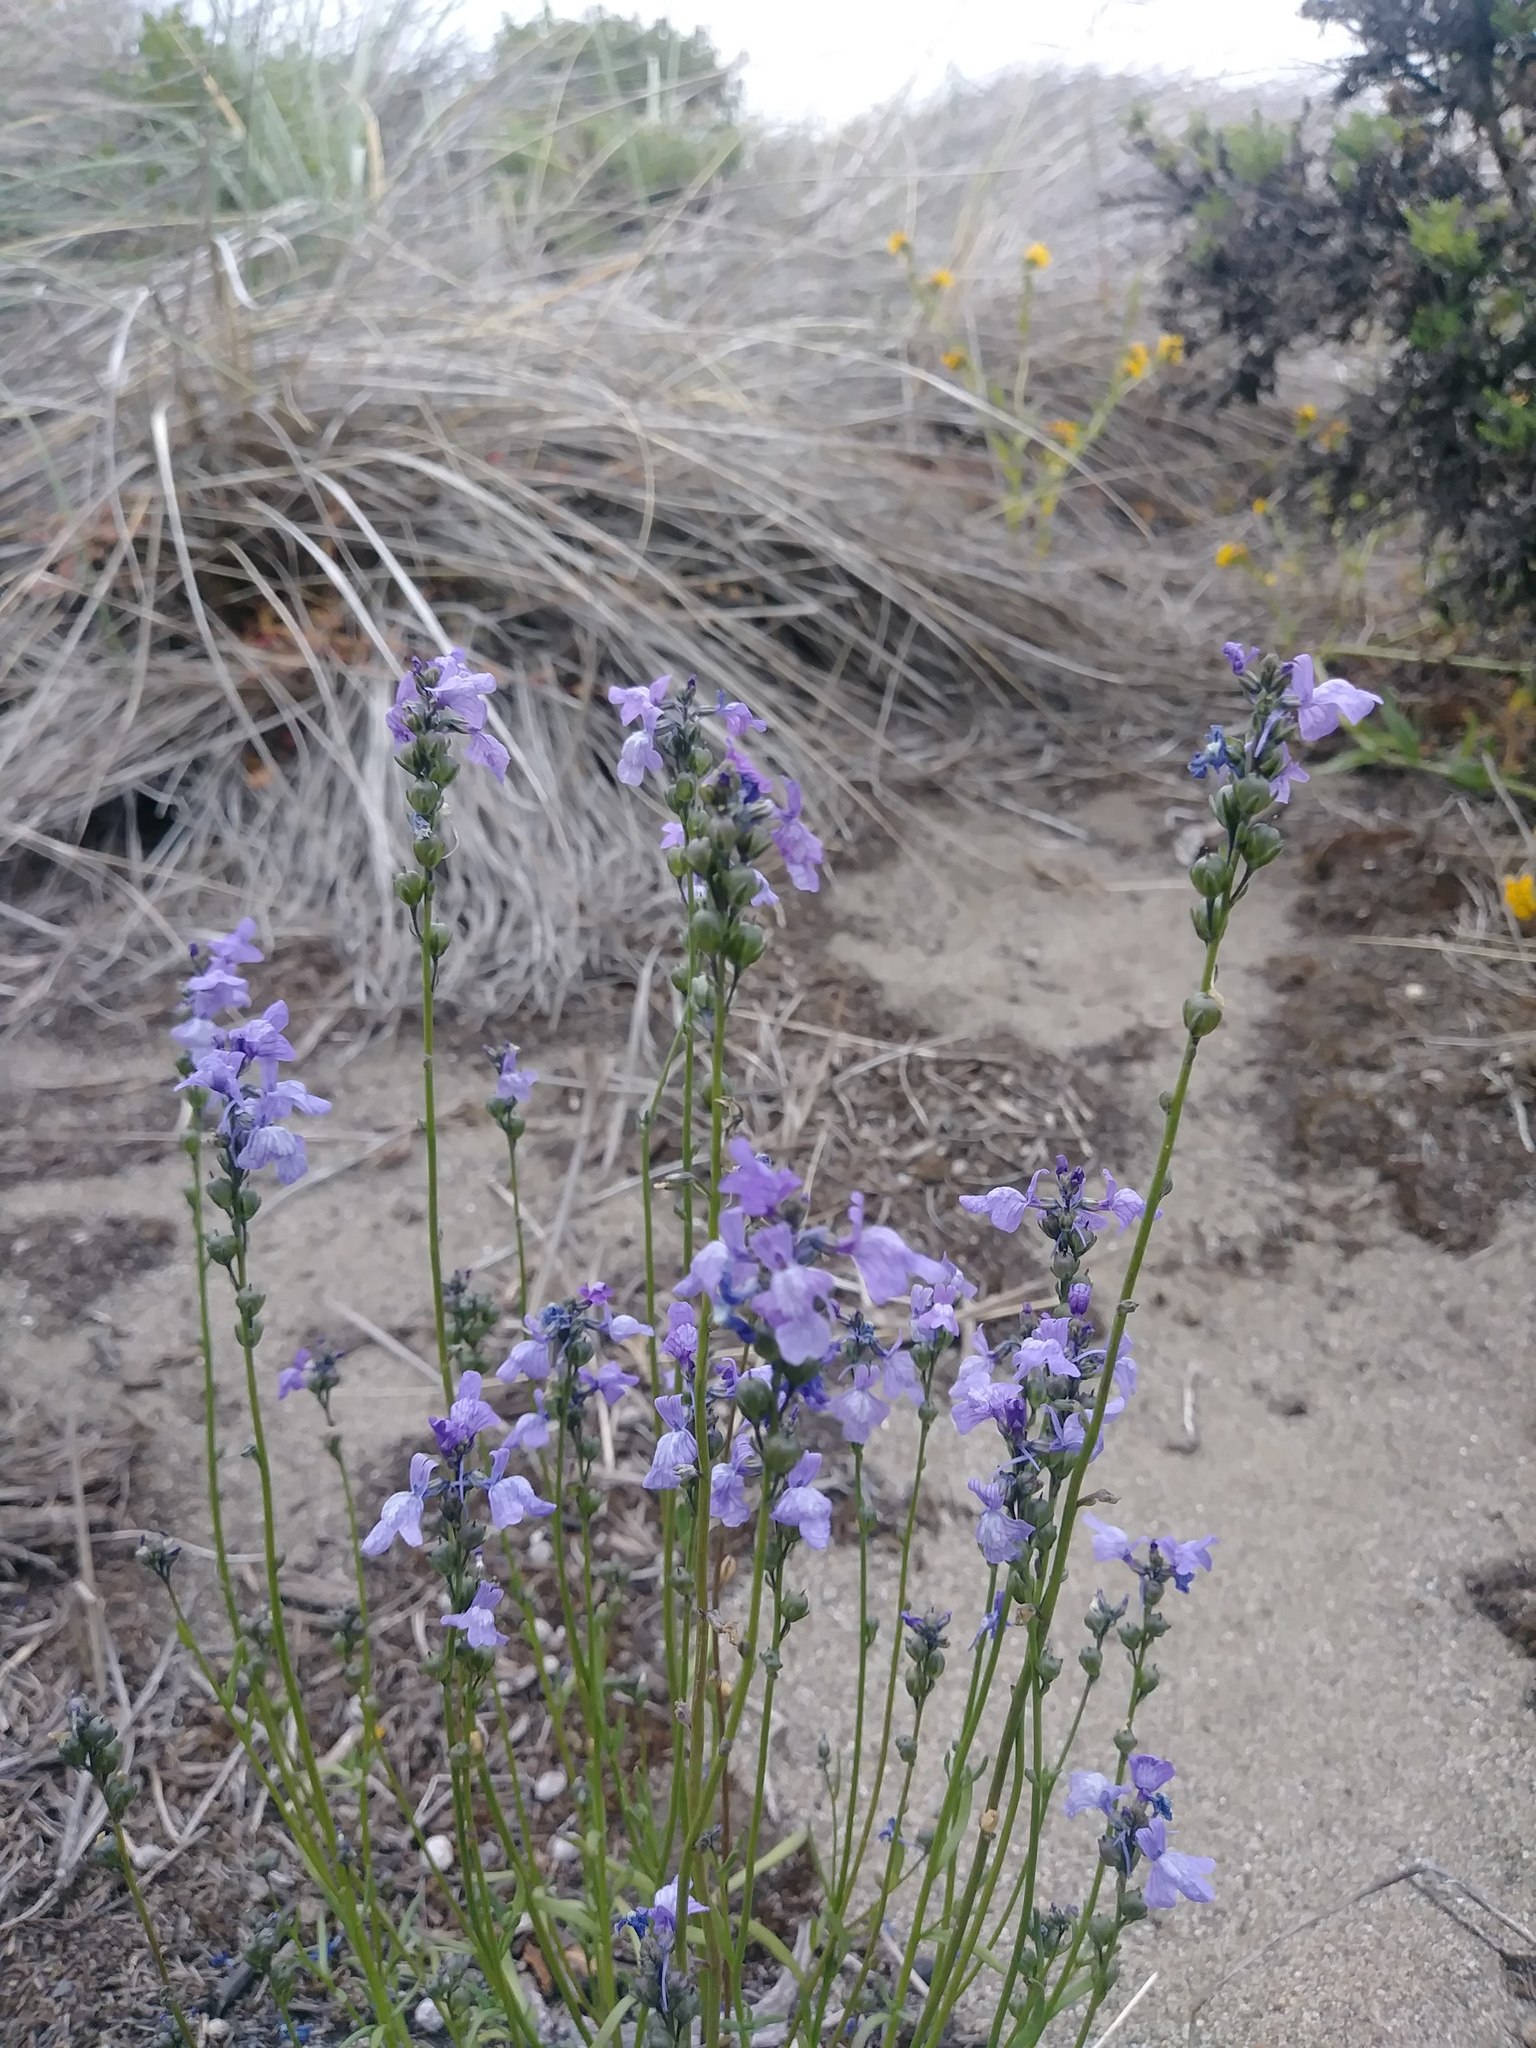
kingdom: Plantae
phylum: Tracheophyta
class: Magnoliopsida
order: Lamiales
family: Plantaginaceae
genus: Nuttallanthus
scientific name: Nuttallanthus texanus
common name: Texas toadflax
